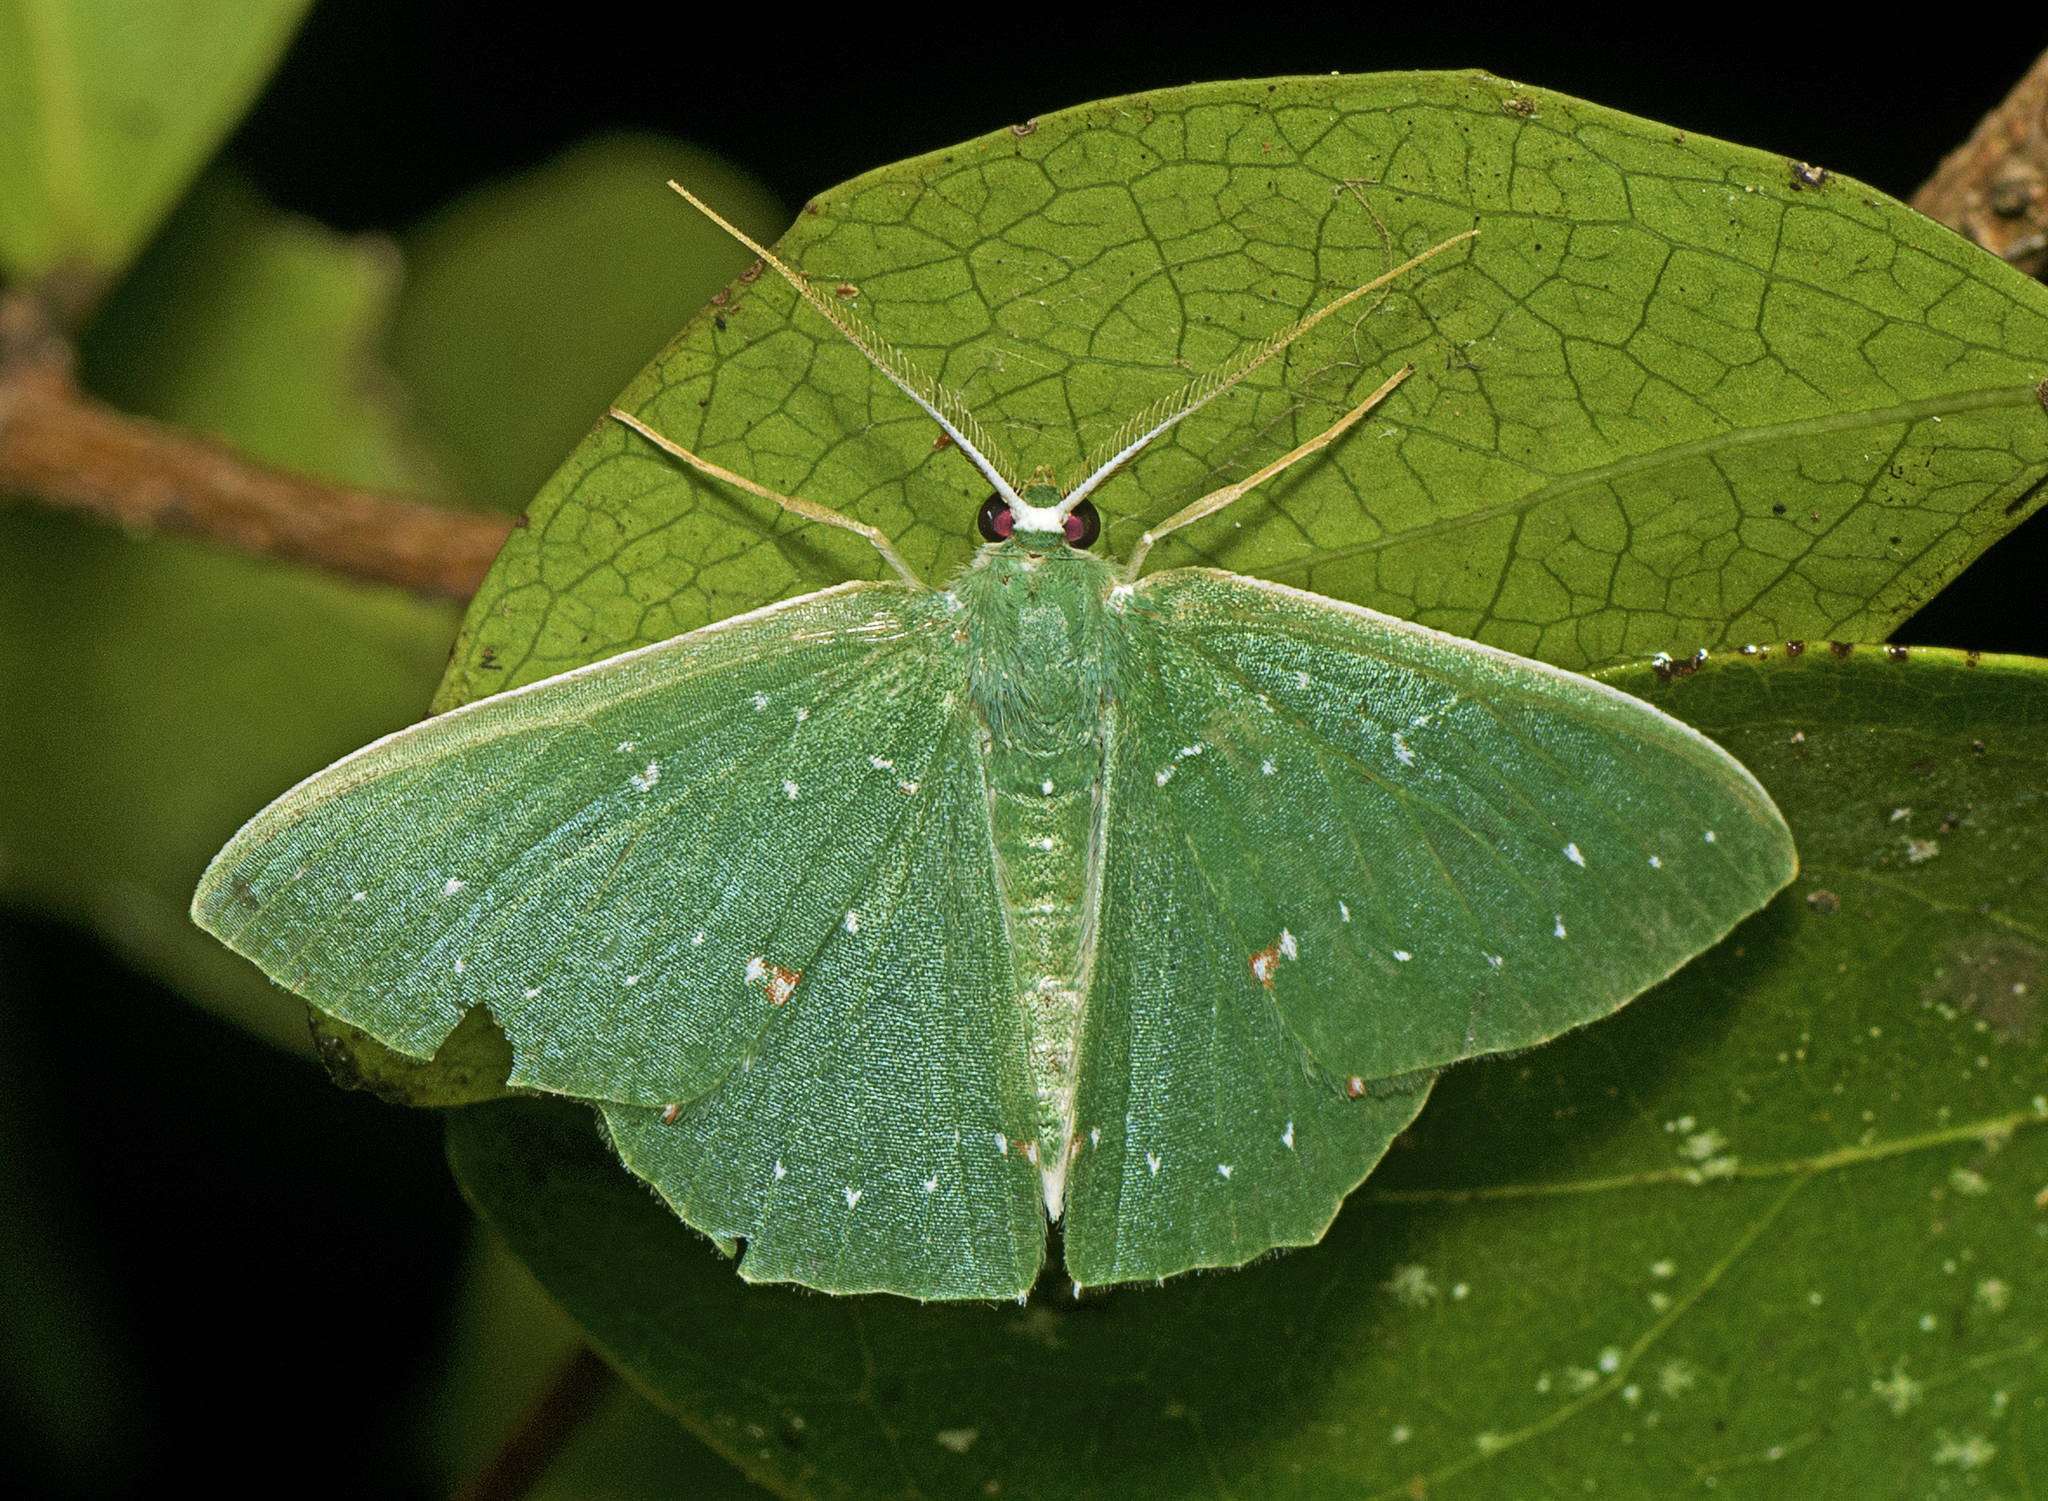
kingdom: Animalia
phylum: Arthropoda
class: Insecta
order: Lepidoptera
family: Geometridae
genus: Prasinocyma
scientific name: Prasinocyma iosticta
